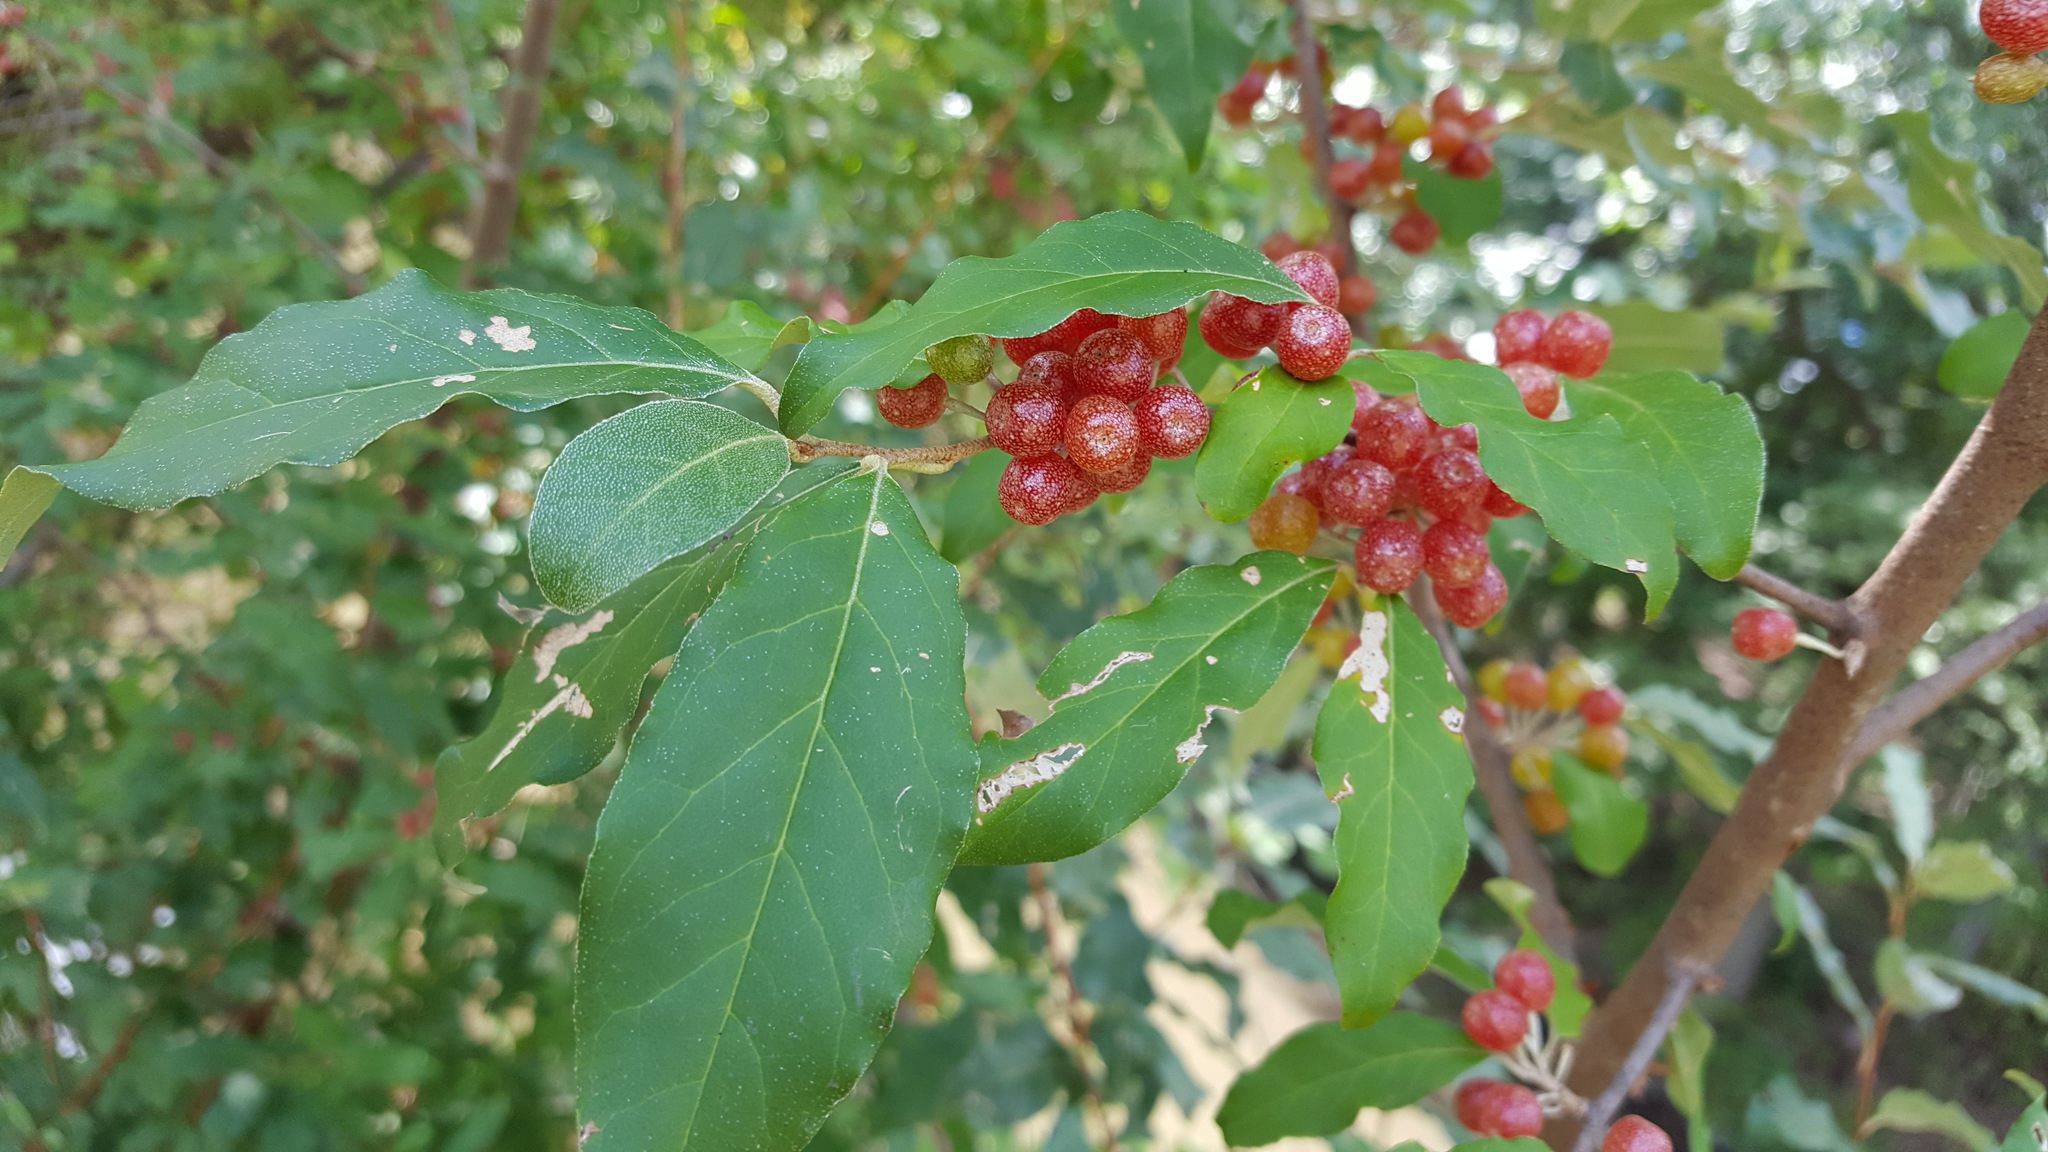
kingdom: Plantae
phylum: Tracheophyta
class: Magnoliopsida
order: Rosales
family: Elaeagnaceae
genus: Elaeagnus
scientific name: Elaeagnus umbellata
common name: Autumn olive
